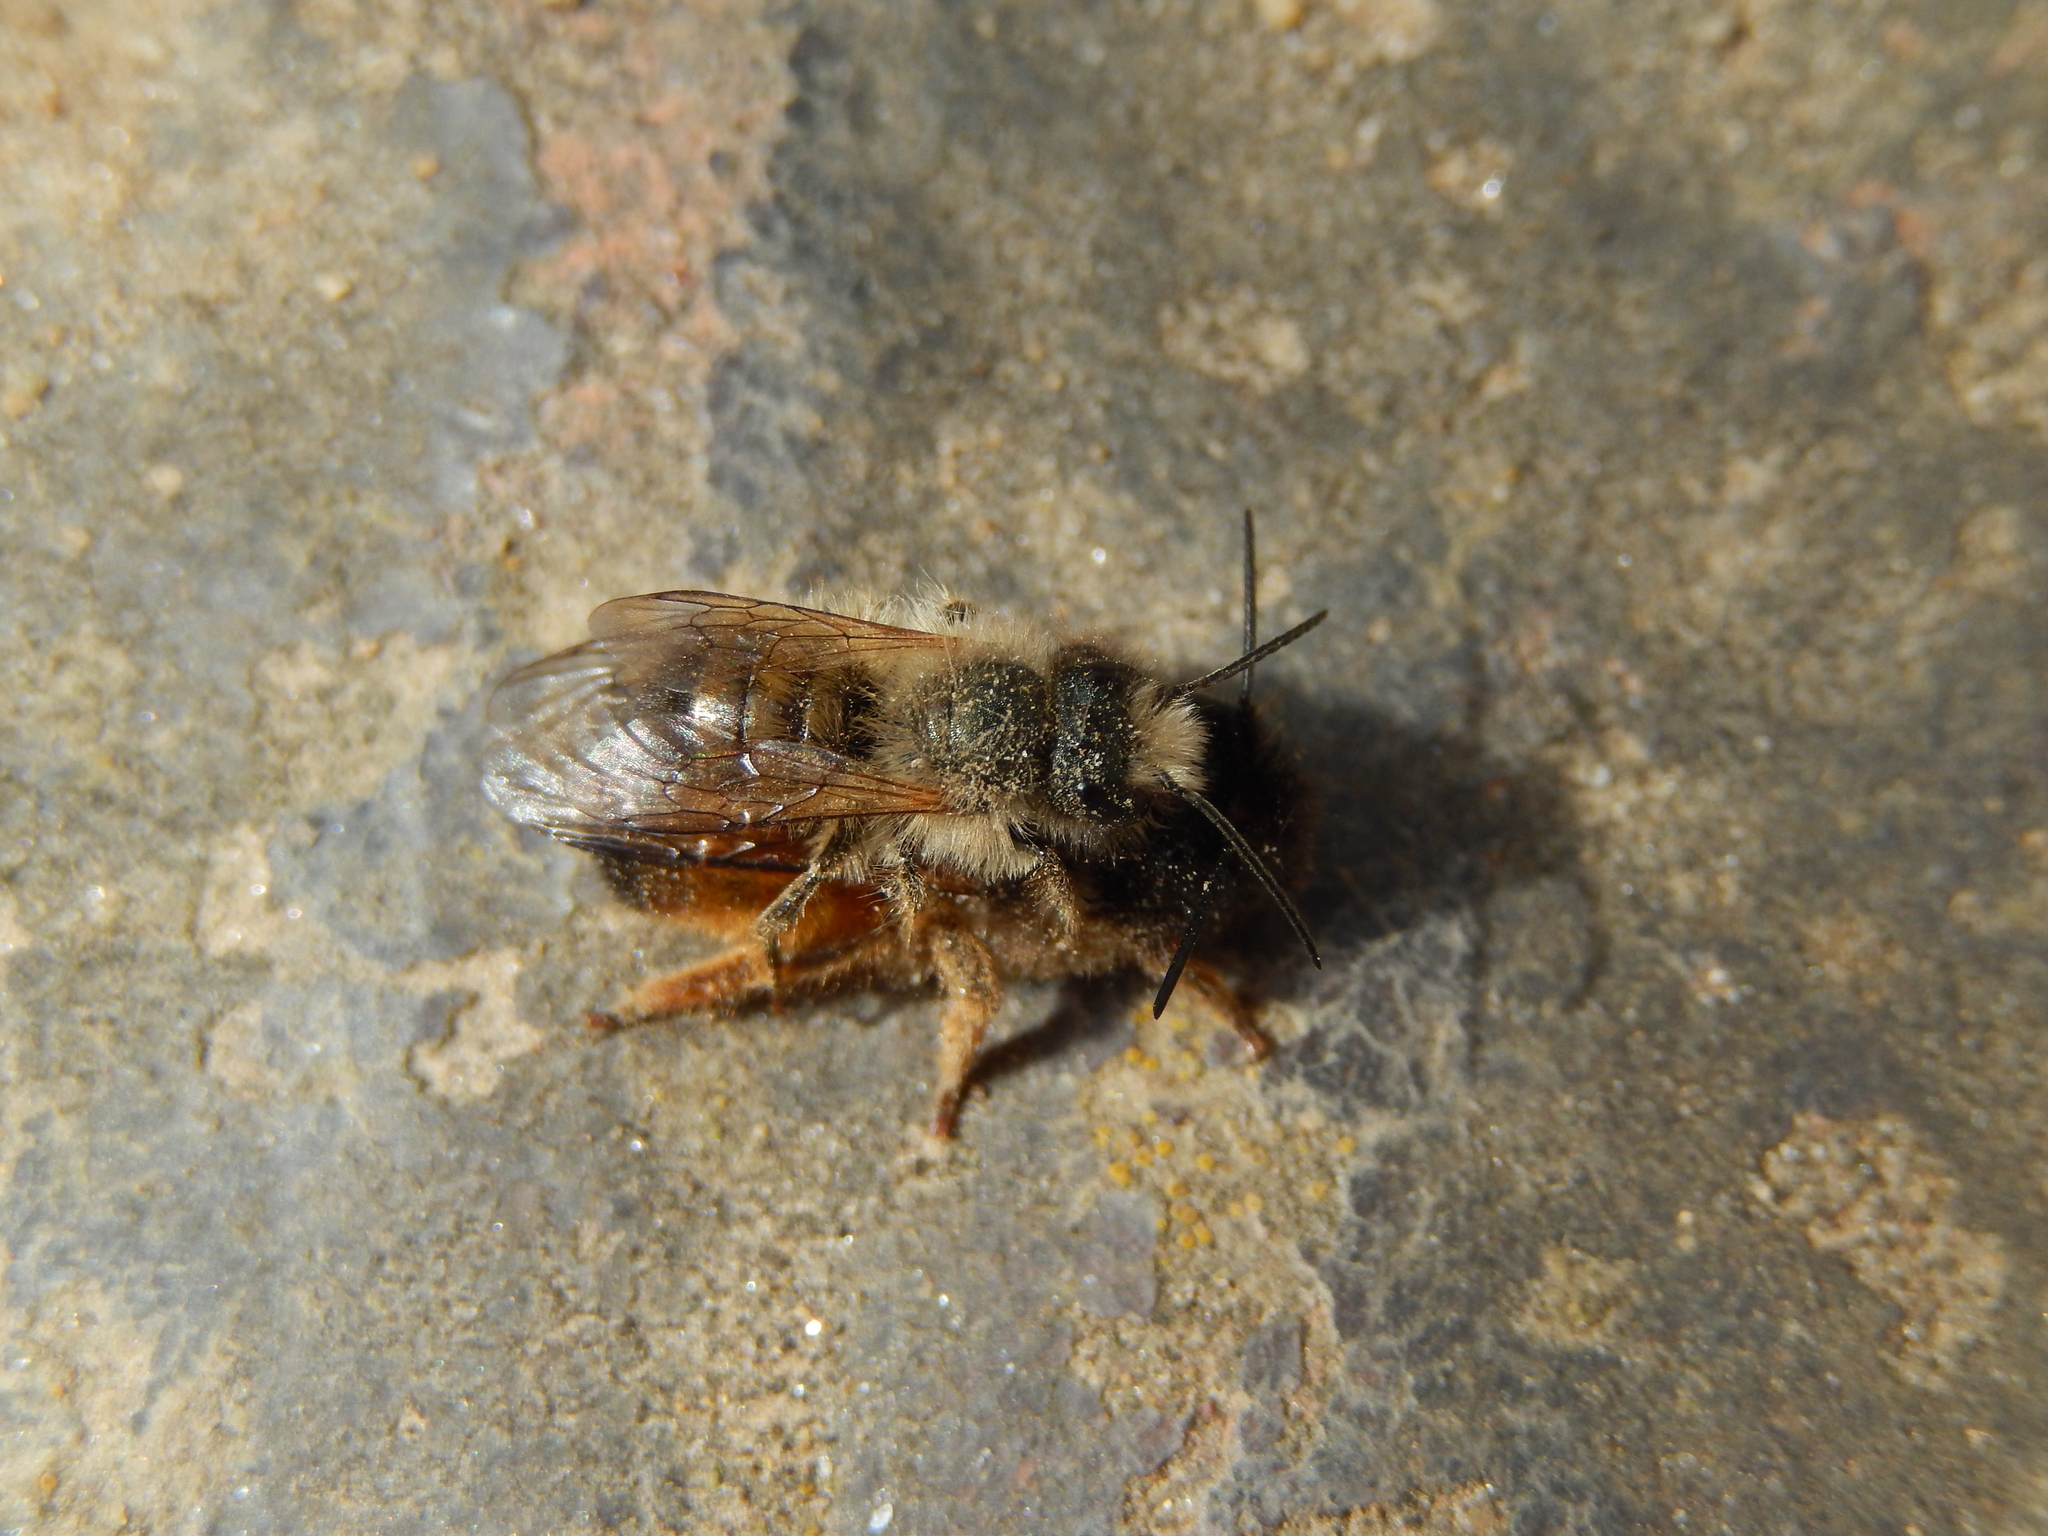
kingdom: Animalia
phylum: Arthropoda
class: Insecta
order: Hymenoptera
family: Megachilidae
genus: Osmia
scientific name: Osmia bicornis
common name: Red mason bee
